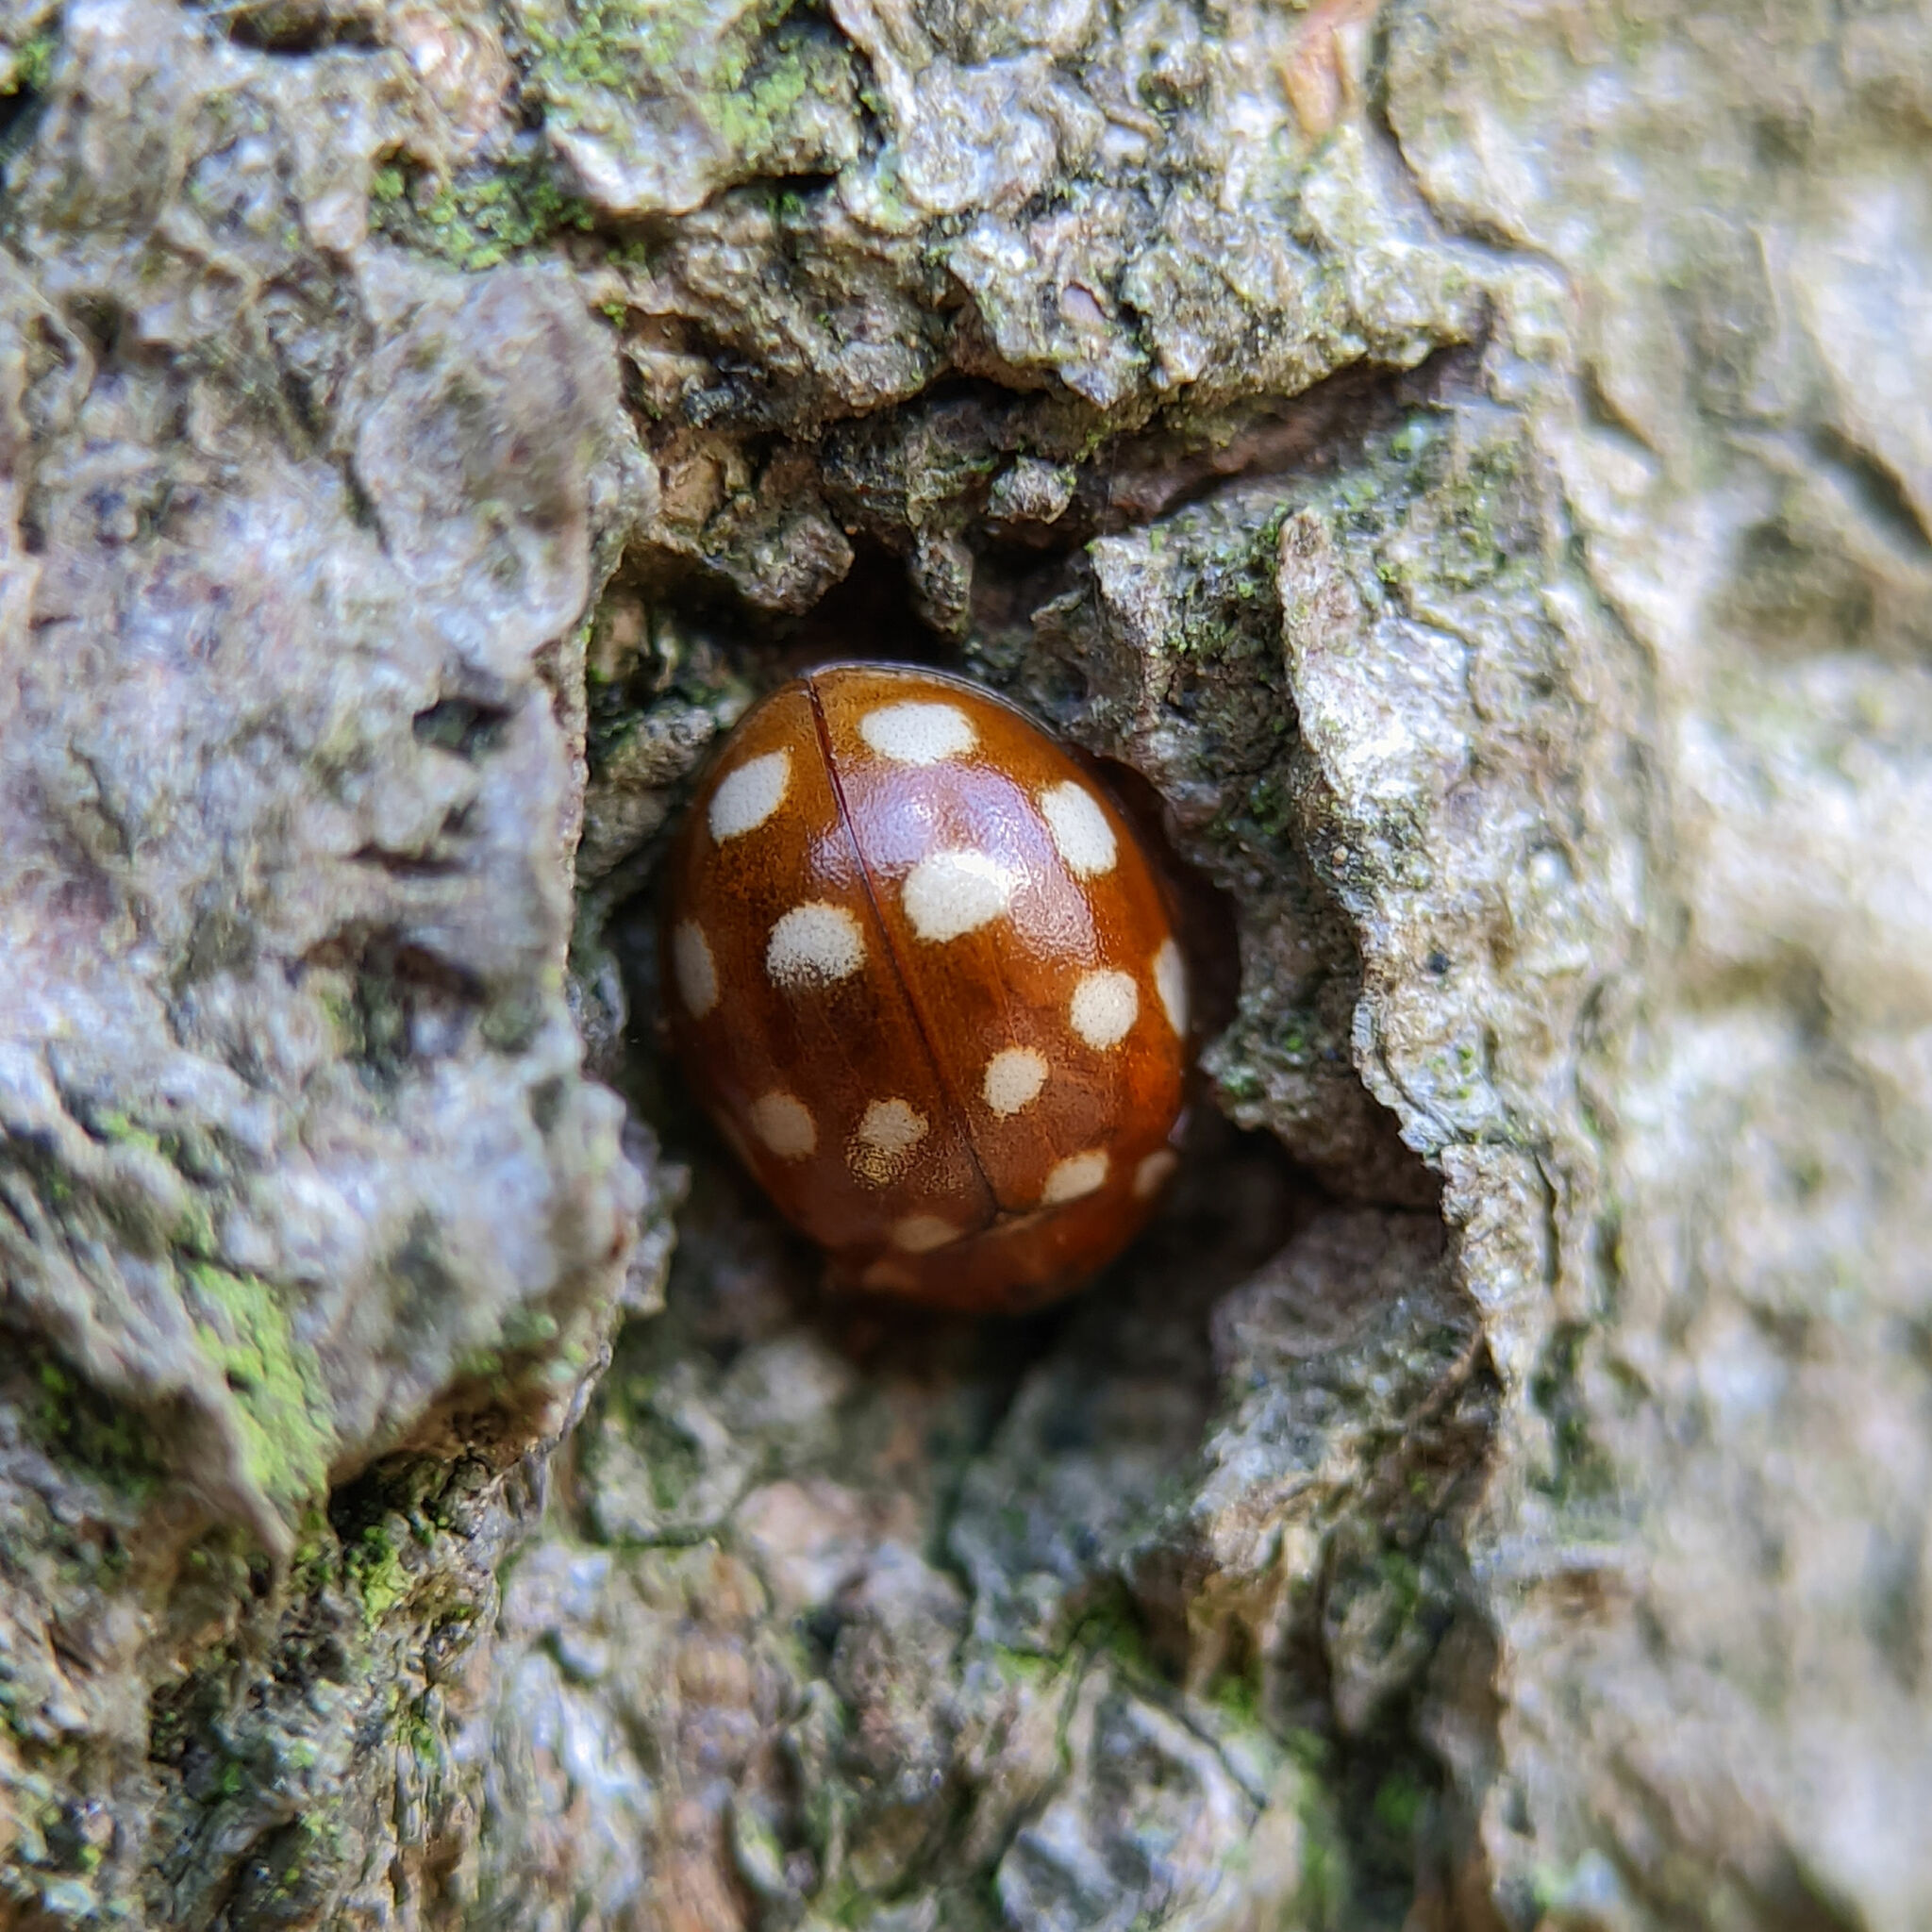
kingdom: Animalia
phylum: Arthropoda
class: Insecta
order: Coleoptera
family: Coccinellidae
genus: Calvia
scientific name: Calvia quatuordecimguttata
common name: Cream-spot ladybird
